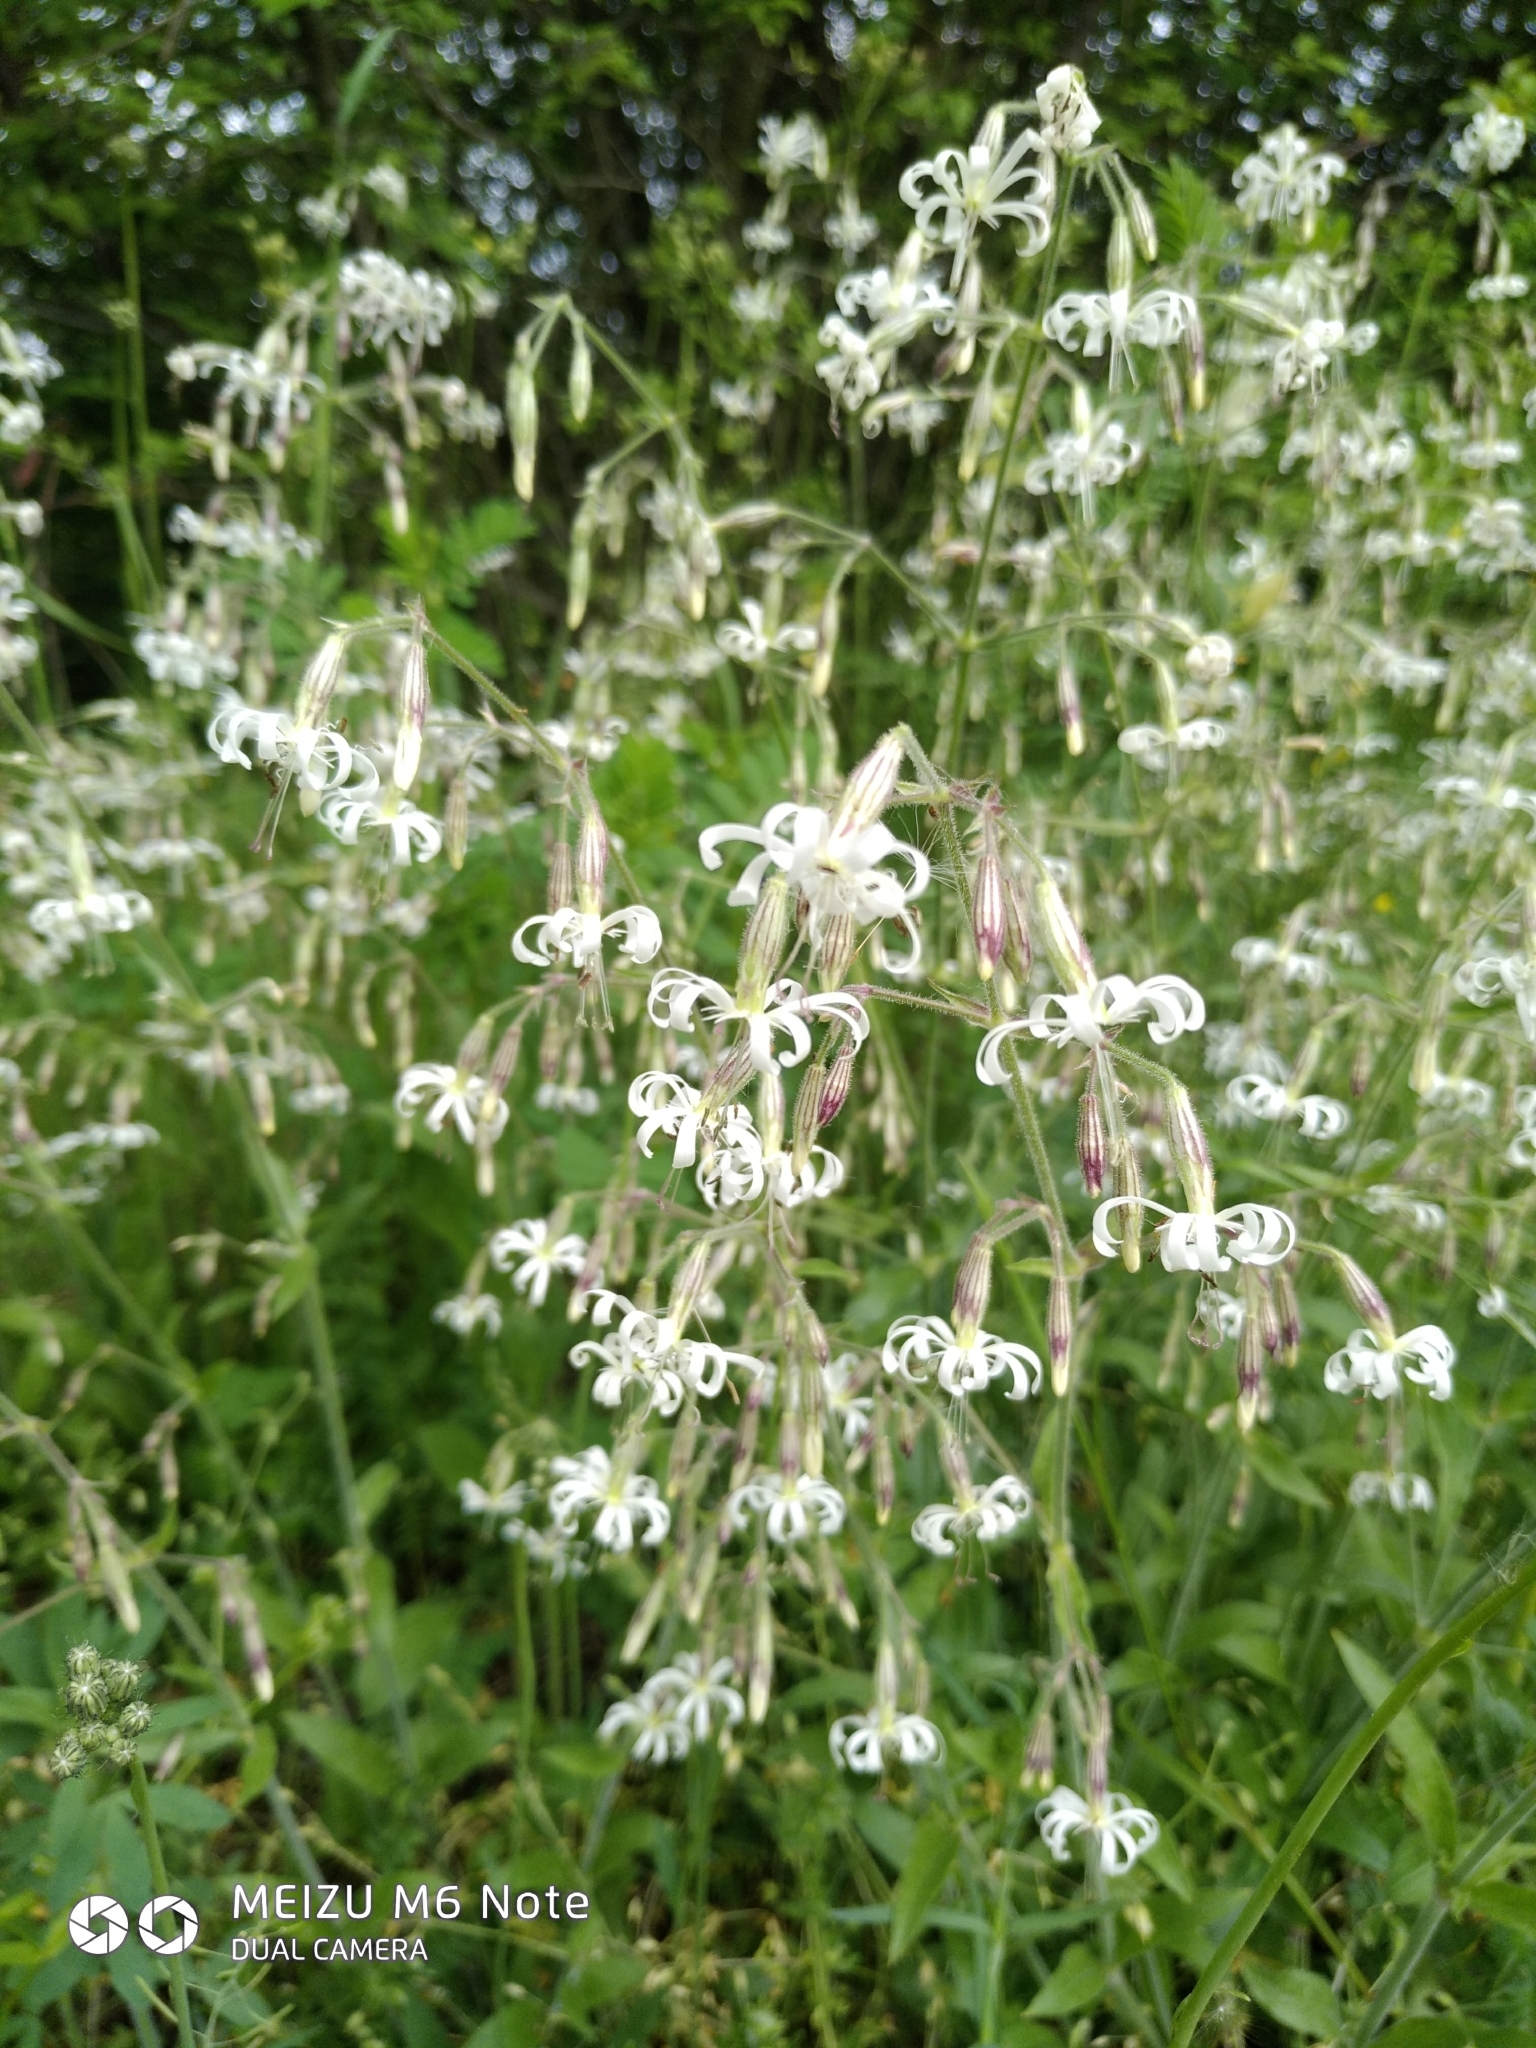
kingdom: Plantae
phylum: Tracheophyta
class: Magnoliopsida
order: Caryophyllales
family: Caryophyllaceae
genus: Silene
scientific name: Silene nutans
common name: Nottingham catchfly
